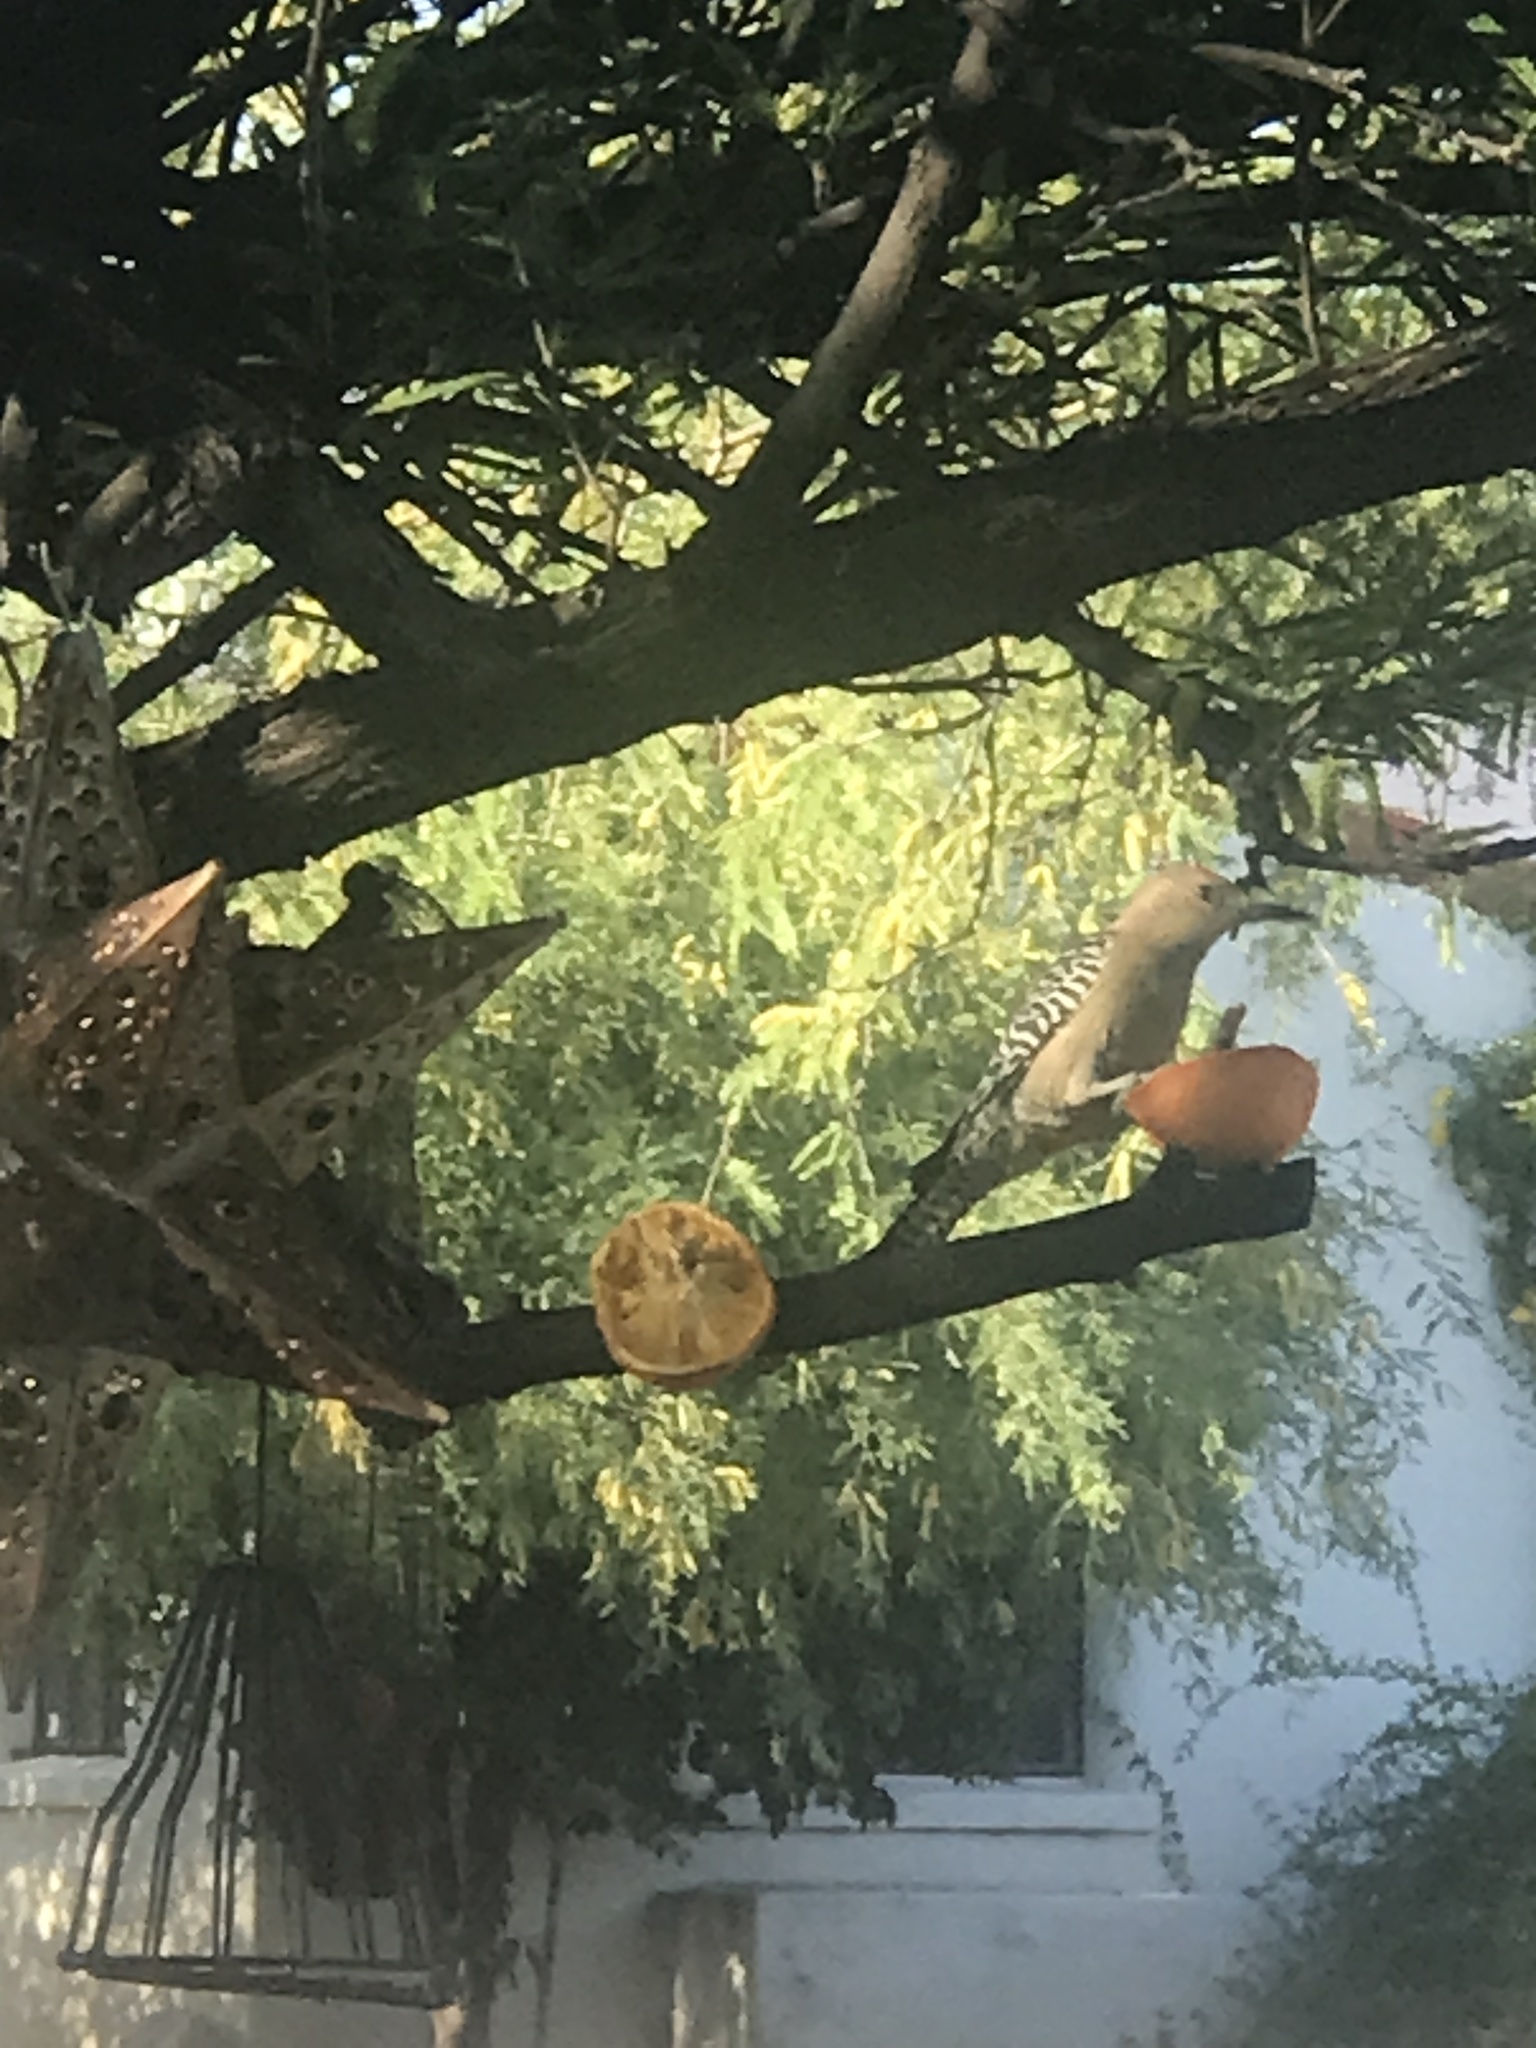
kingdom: Animalia
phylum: Chordata
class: Aves
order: Piciformes
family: Picidae
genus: Melanerpes
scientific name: Melanerpes uropygialis
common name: Gila woodpecker
